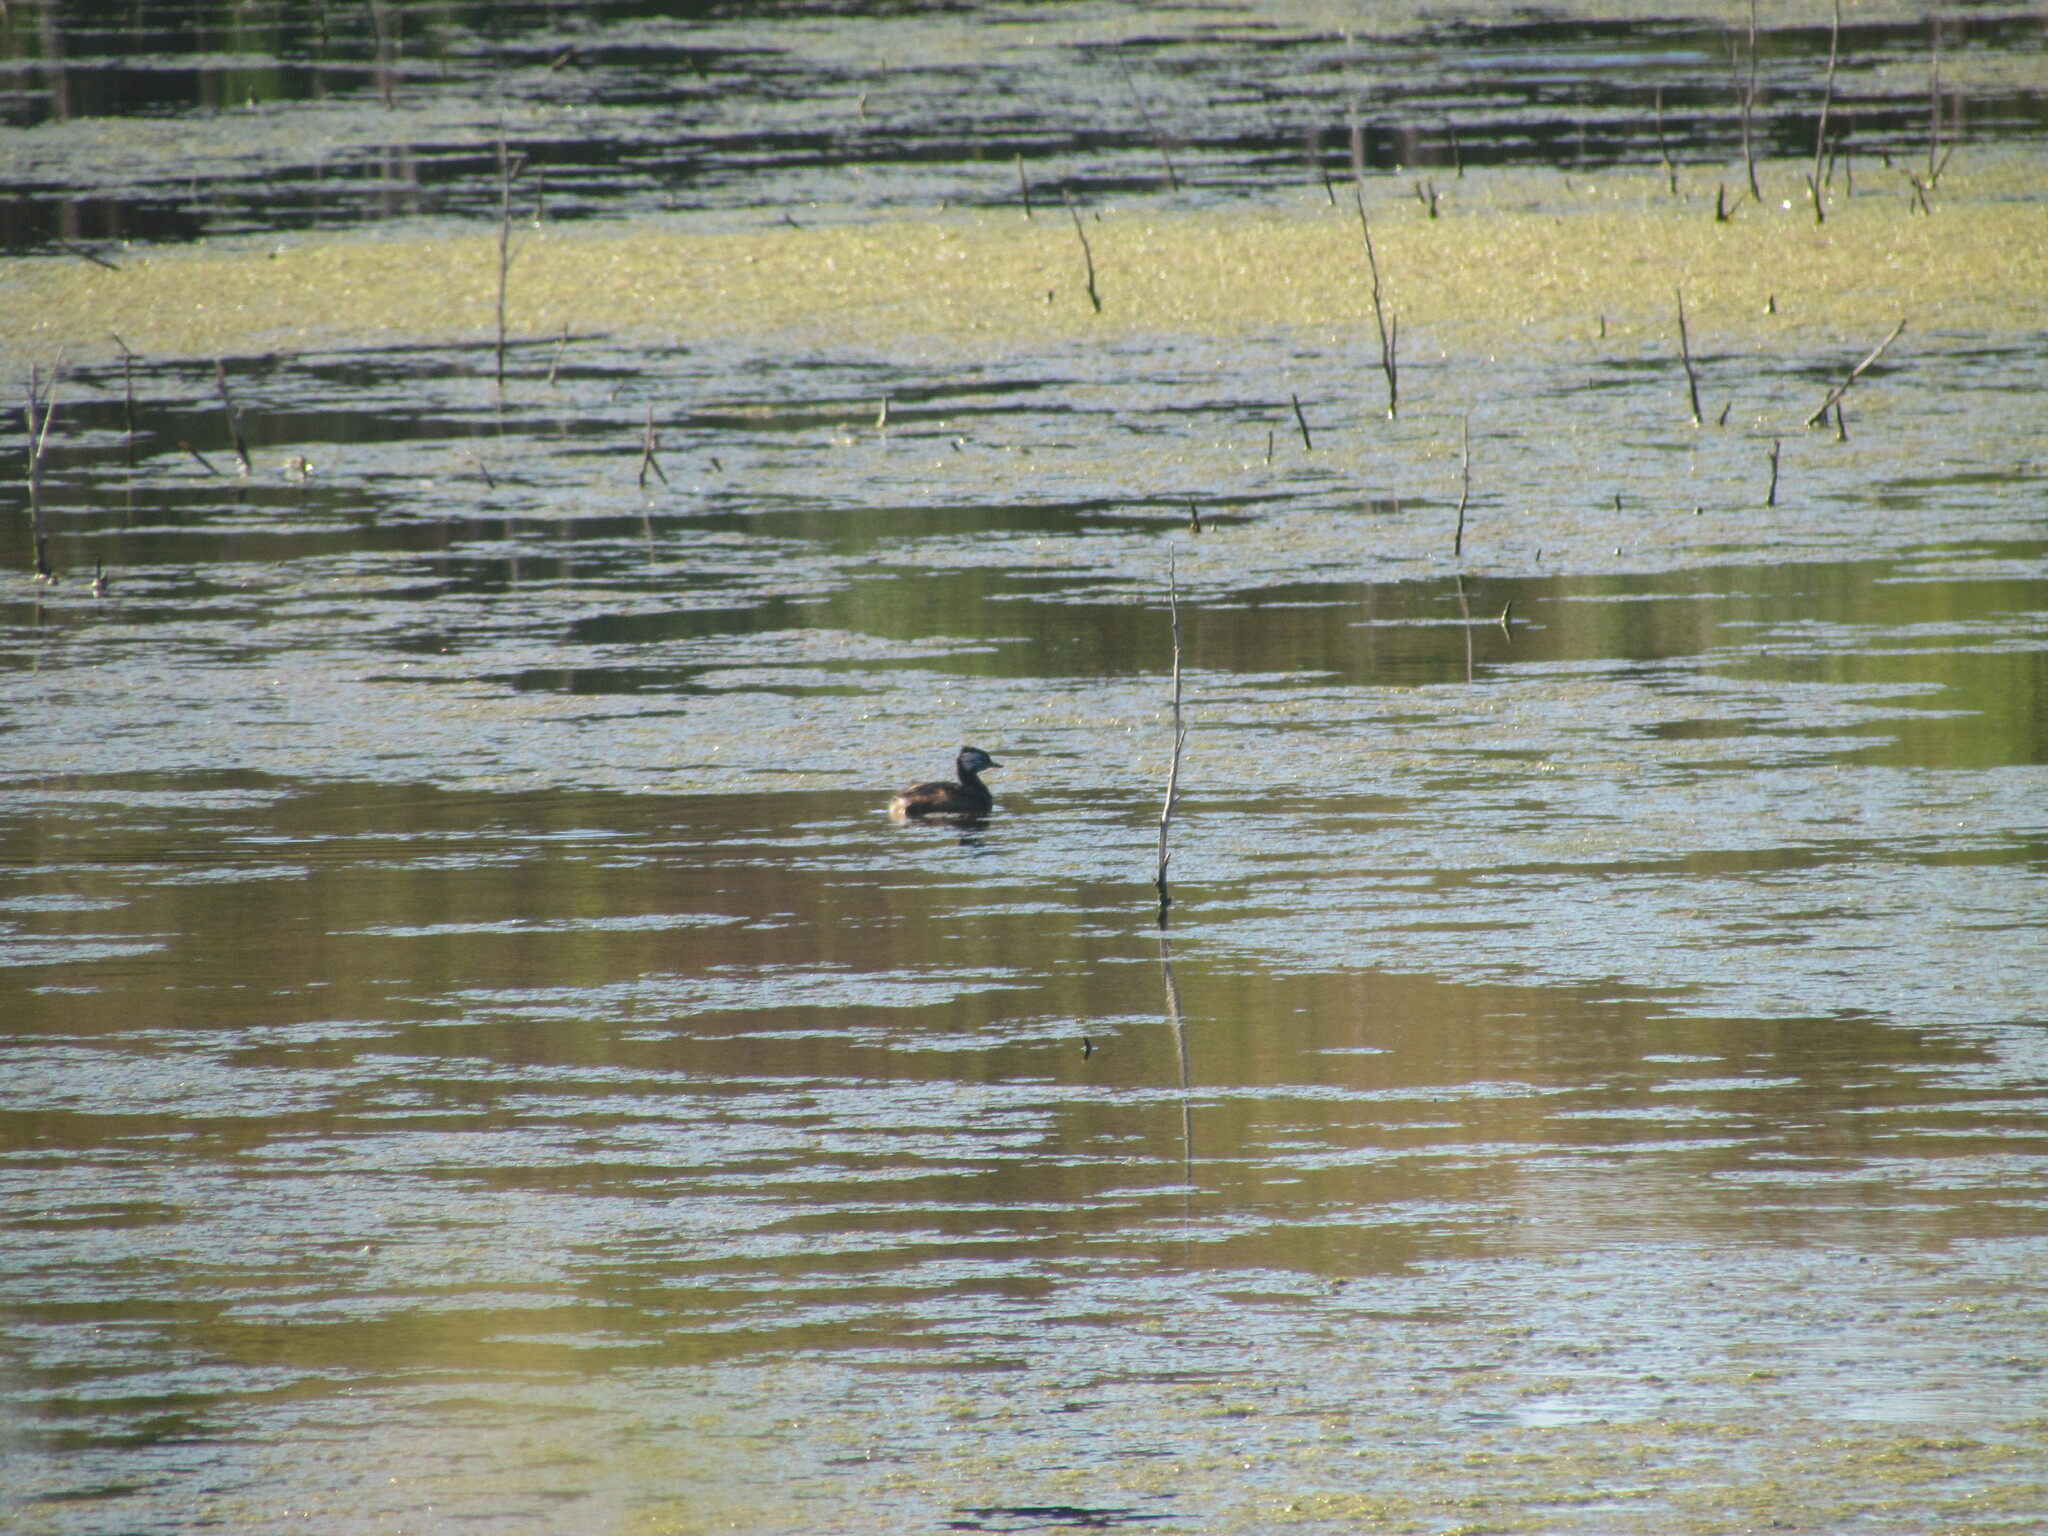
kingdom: Animalia
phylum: Chordata
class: Aves
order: Podicipediformes
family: Podicipedidae
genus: Rollandia
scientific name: Rollandia rolland
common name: White-tufted grebe
